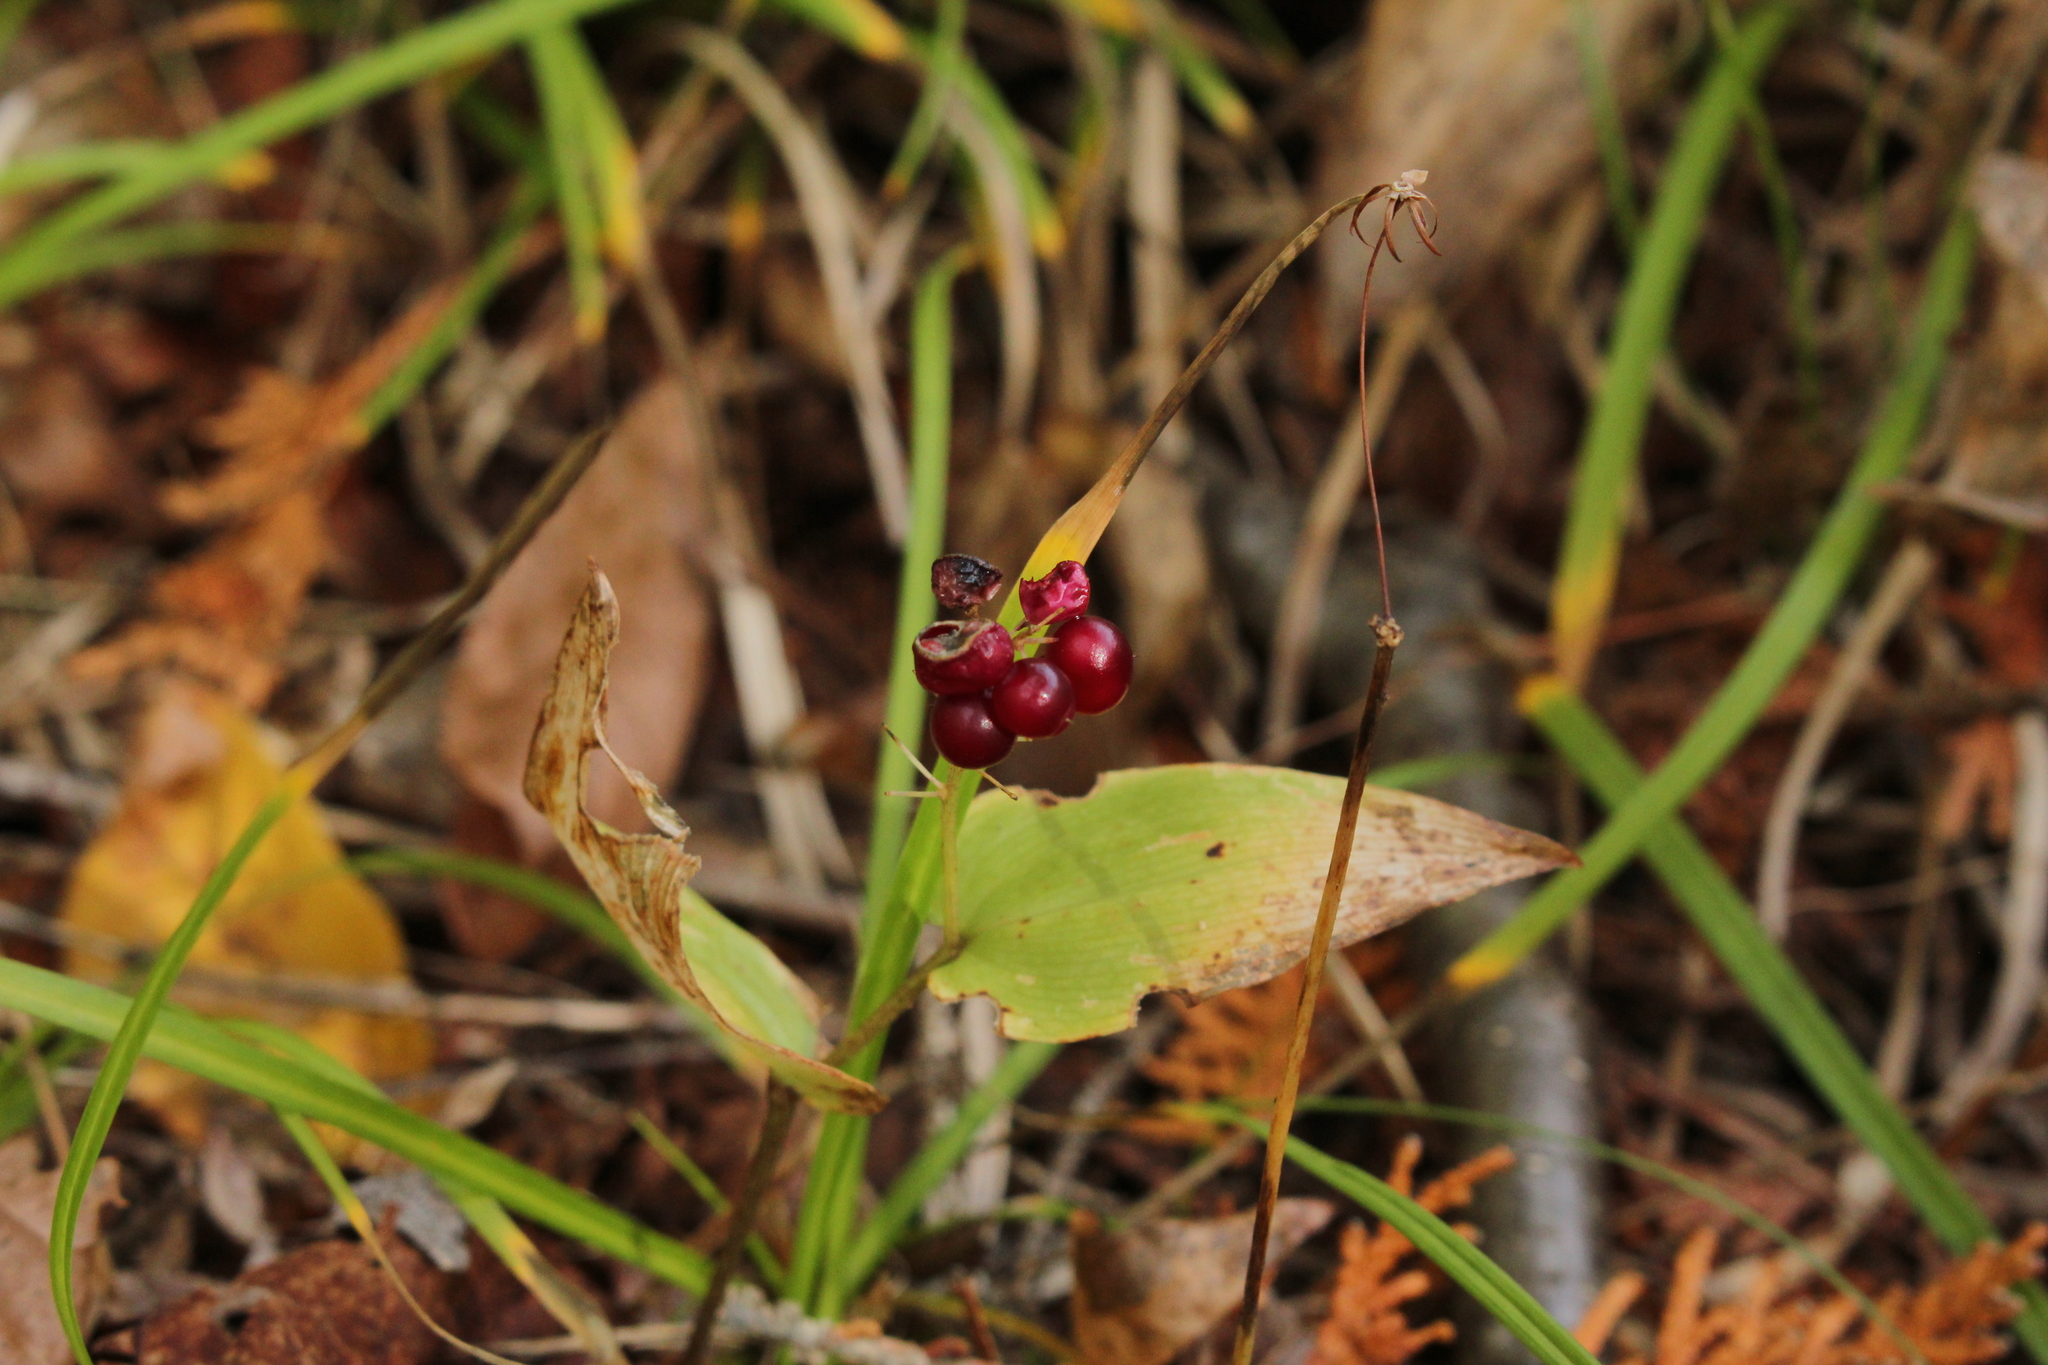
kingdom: Plantae
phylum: Tracheophyta
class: Liliopsida
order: Asparagales
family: Asparagaceae
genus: Maianthemum
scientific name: Maianthemum canadense
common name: False lily-of-the-valley
